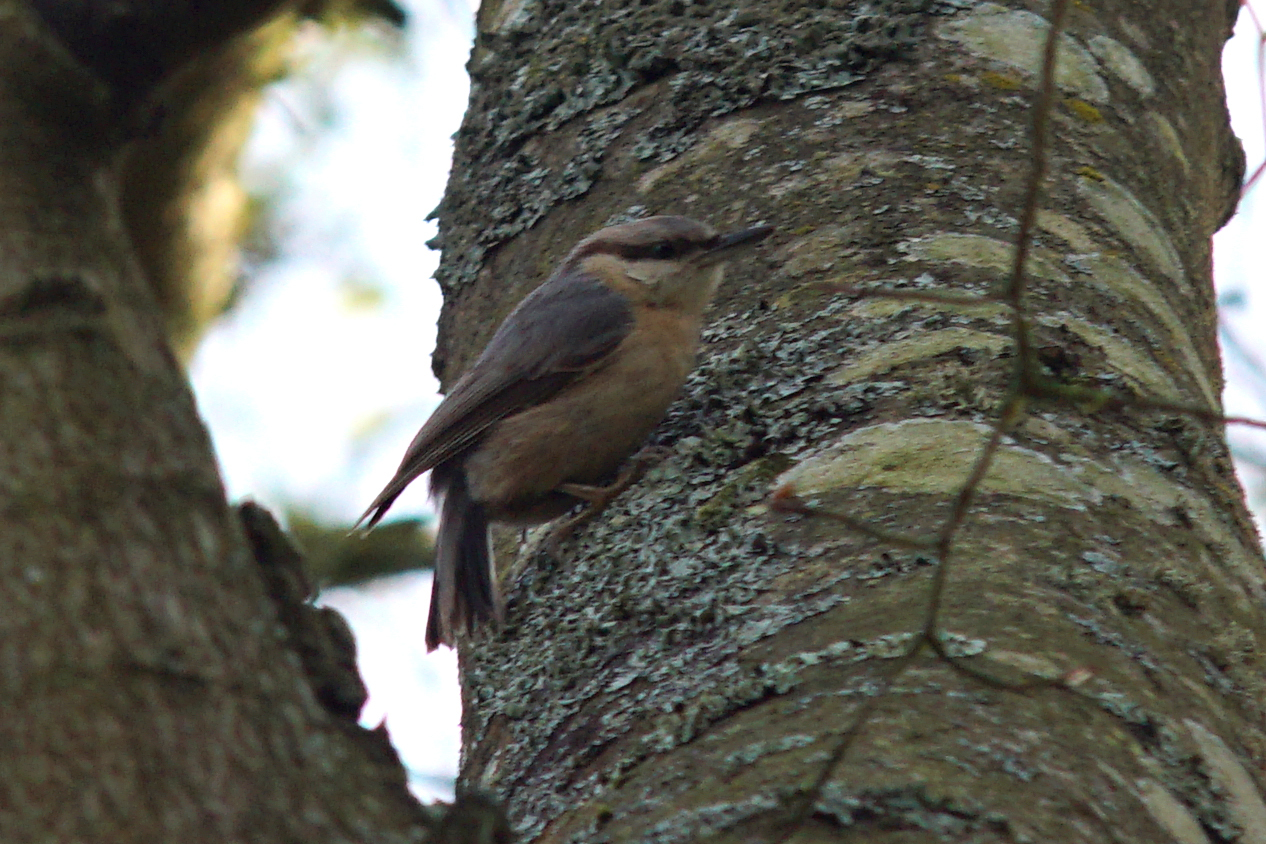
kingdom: Animalia
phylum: Chordata
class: Aves
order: Passeriformes
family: Sittidae
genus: Sitta
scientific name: Sitta europaea
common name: Eurasian nuthatch
